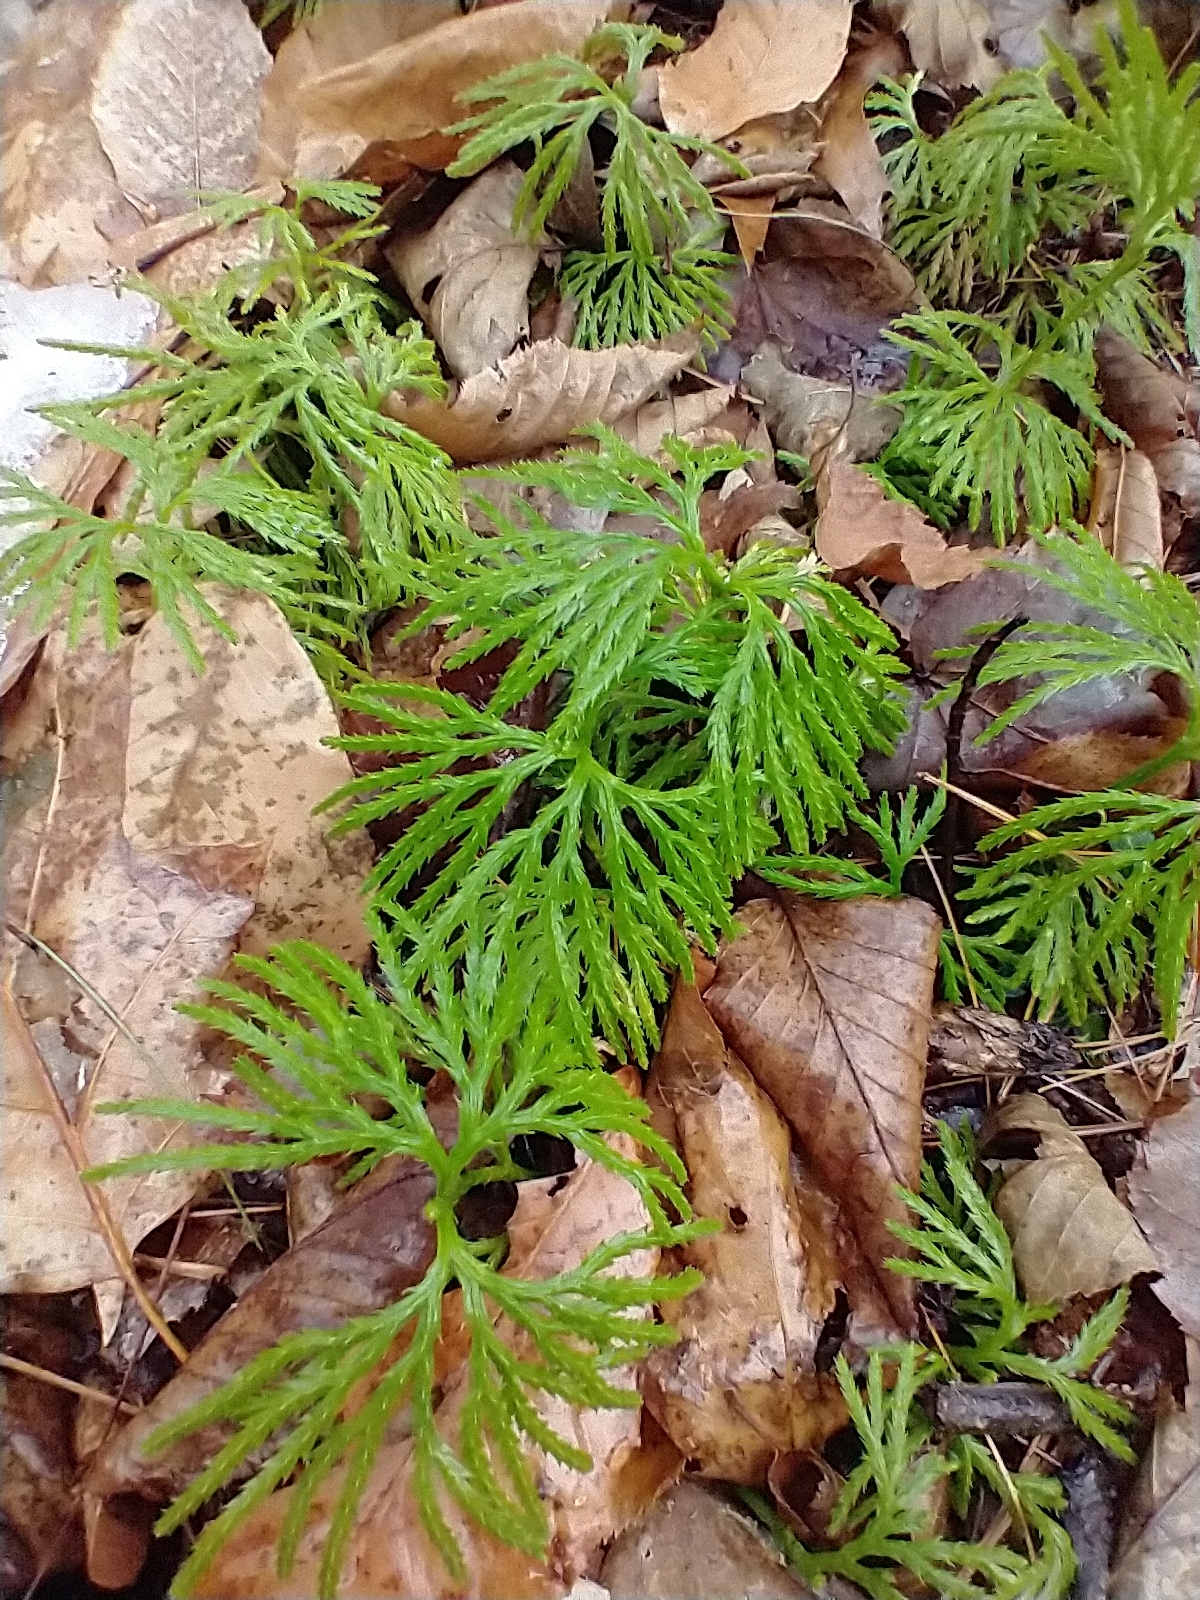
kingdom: Plantae
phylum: Tracheophyta
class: Lycopodiopsida
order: Lycopodiales
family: Lycopodiaceae
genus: Diphasiastrum
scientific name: Diphasiastrum digitatum
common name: Southern running-pine
